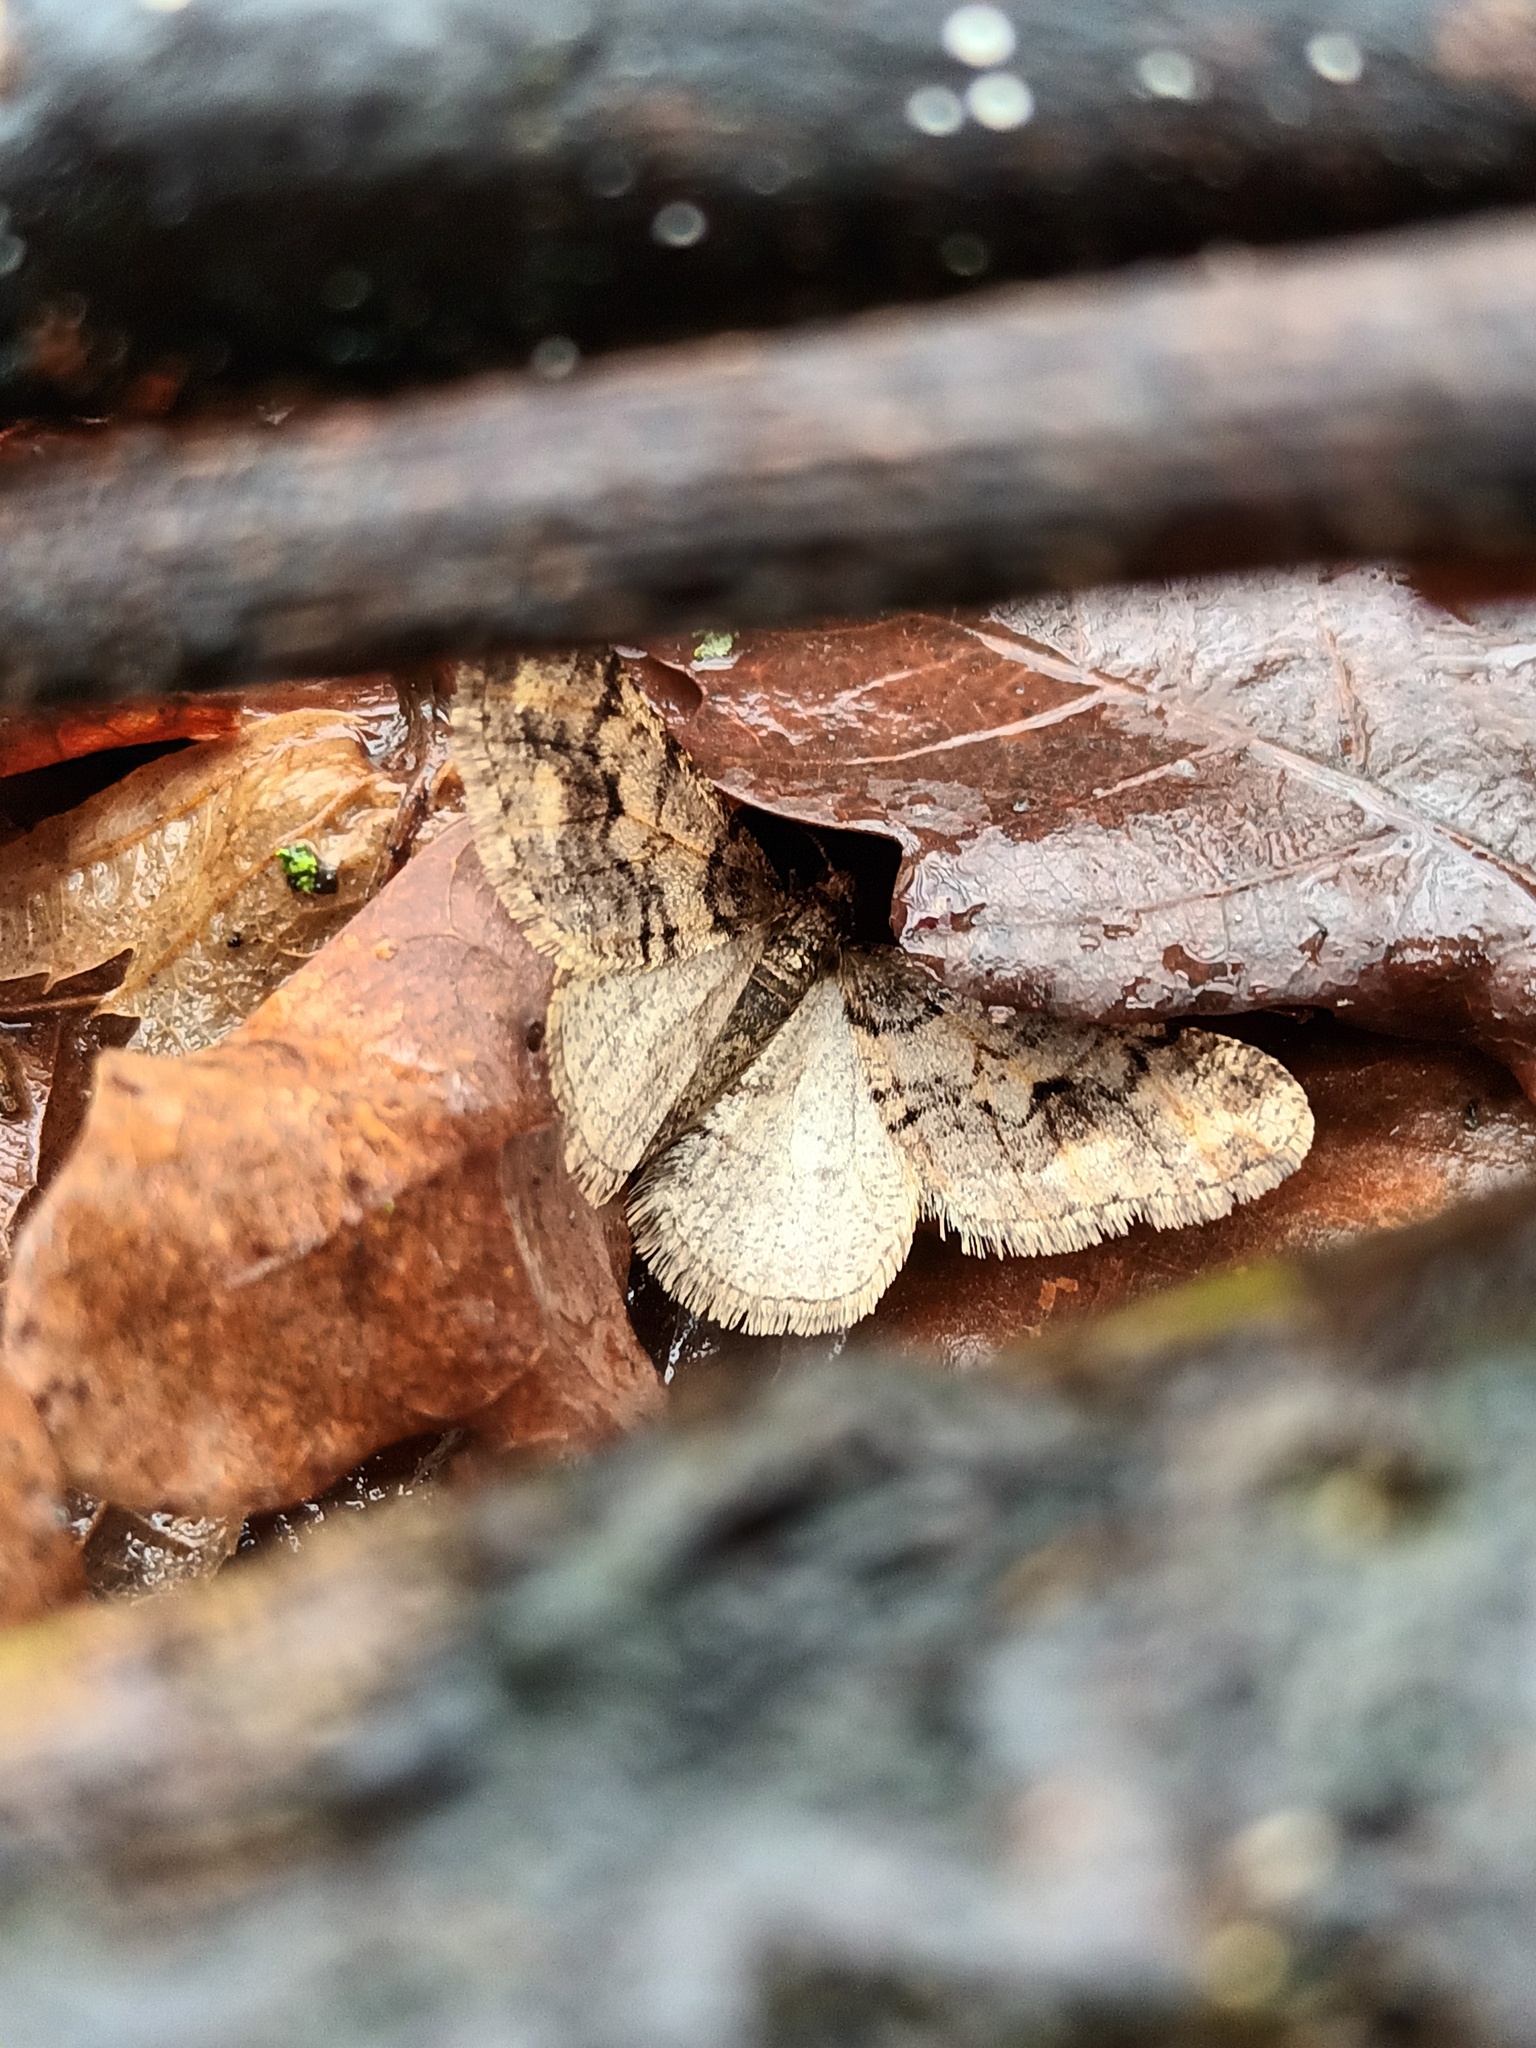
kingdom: Animalia
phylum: Arthropoda
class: Insecta
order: Lepidoptera
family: Geometridae
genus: Agriopis
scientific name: Agriopis leucophaearia
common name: Spring usher
